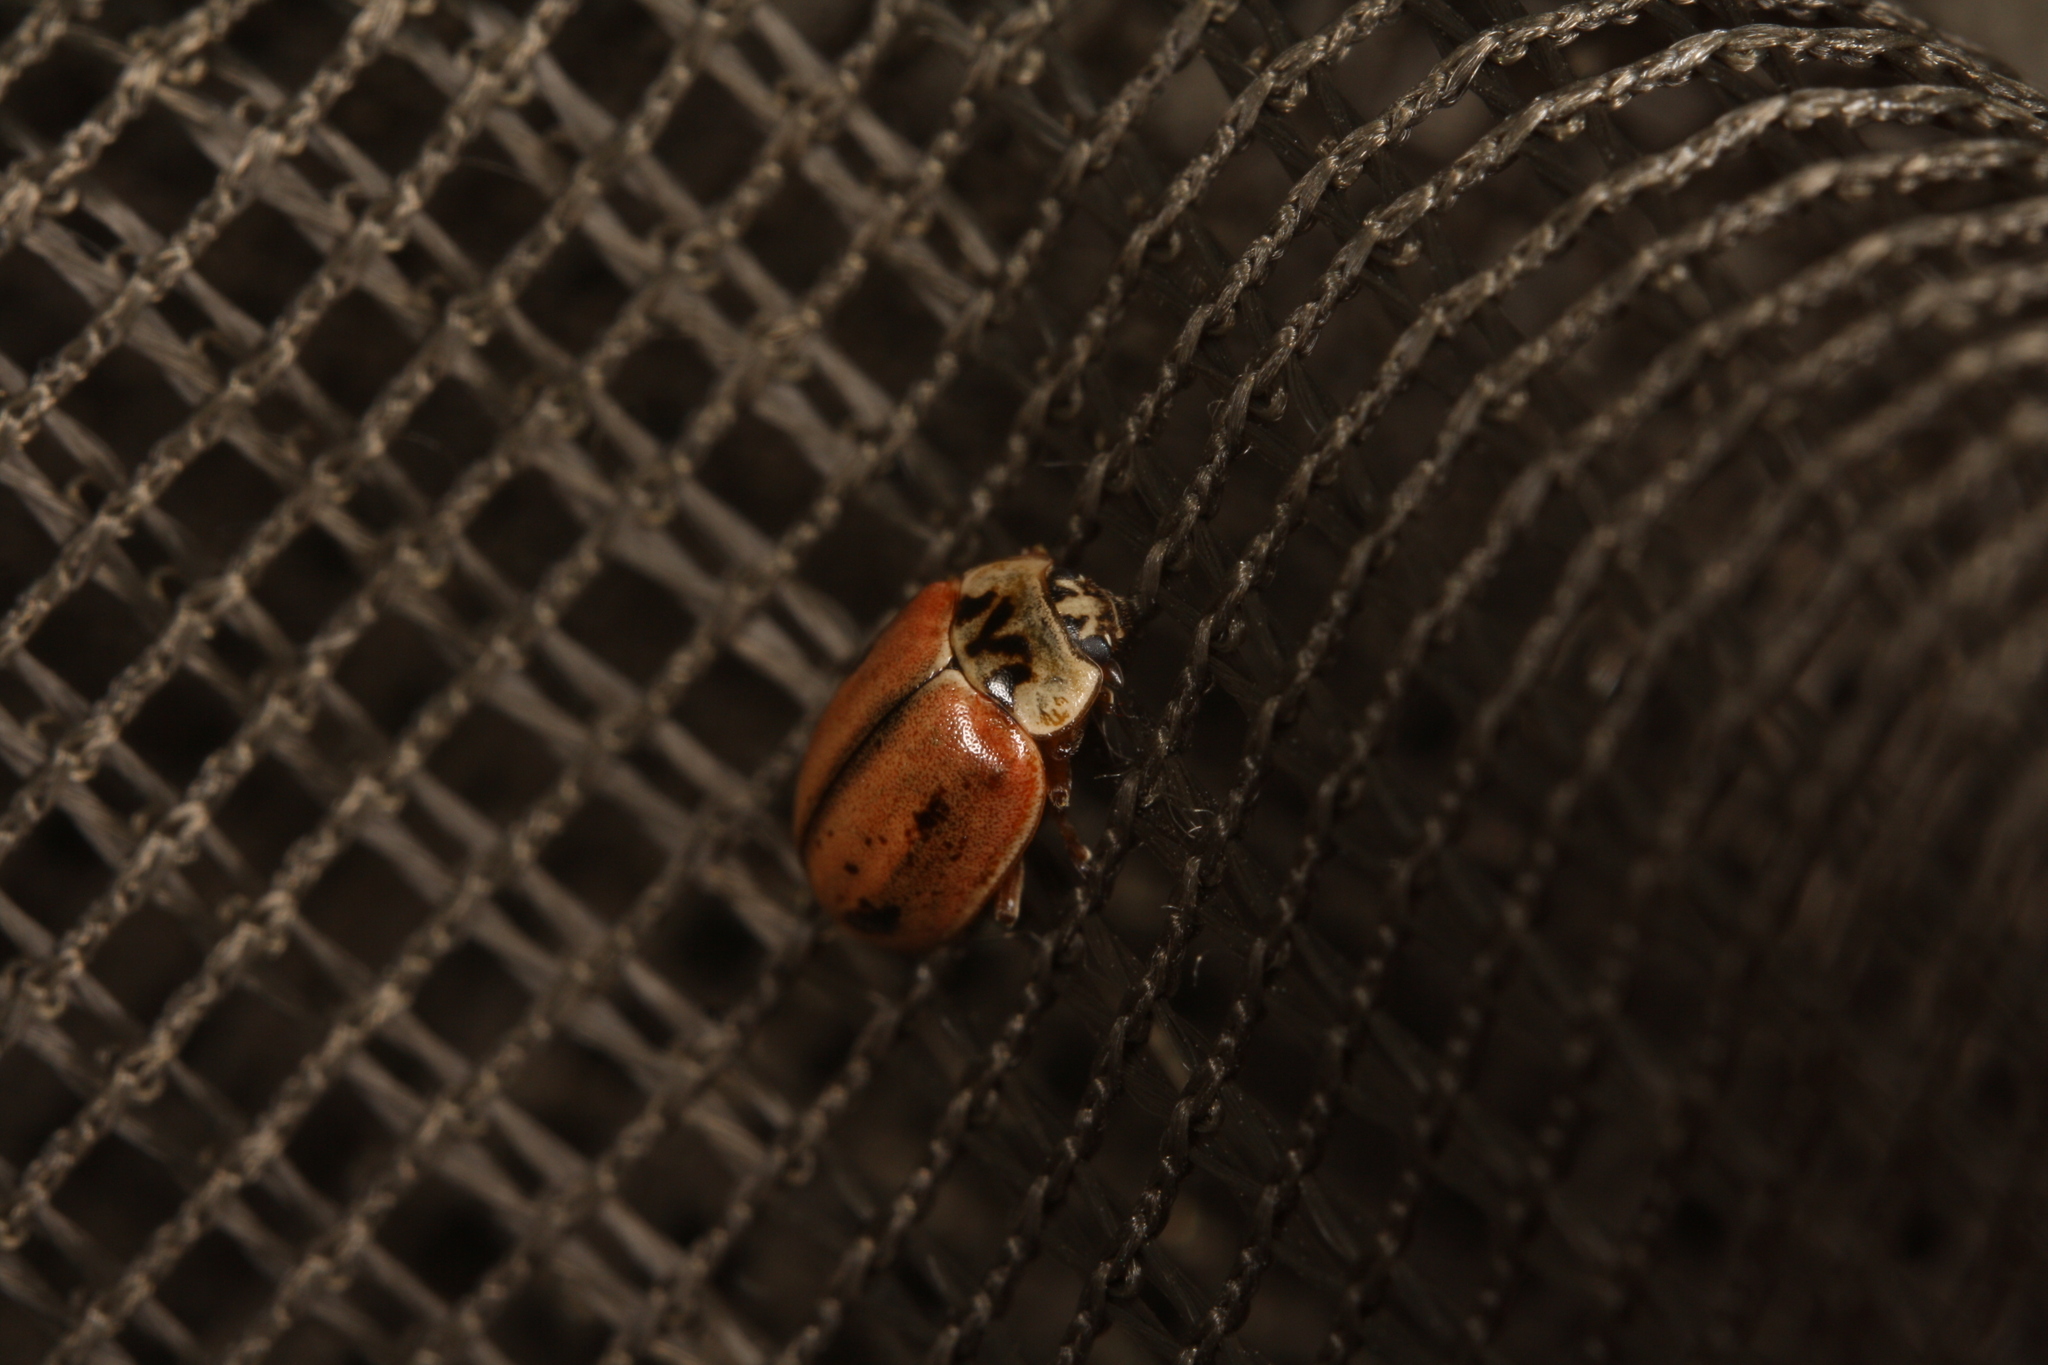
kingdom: Animalia
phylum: Arthropoda
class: Insecta
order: Coleoptera
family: Coccinellidae
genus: Aphidecta
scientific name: Aphidecta obliterata
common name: Larch ladybird
